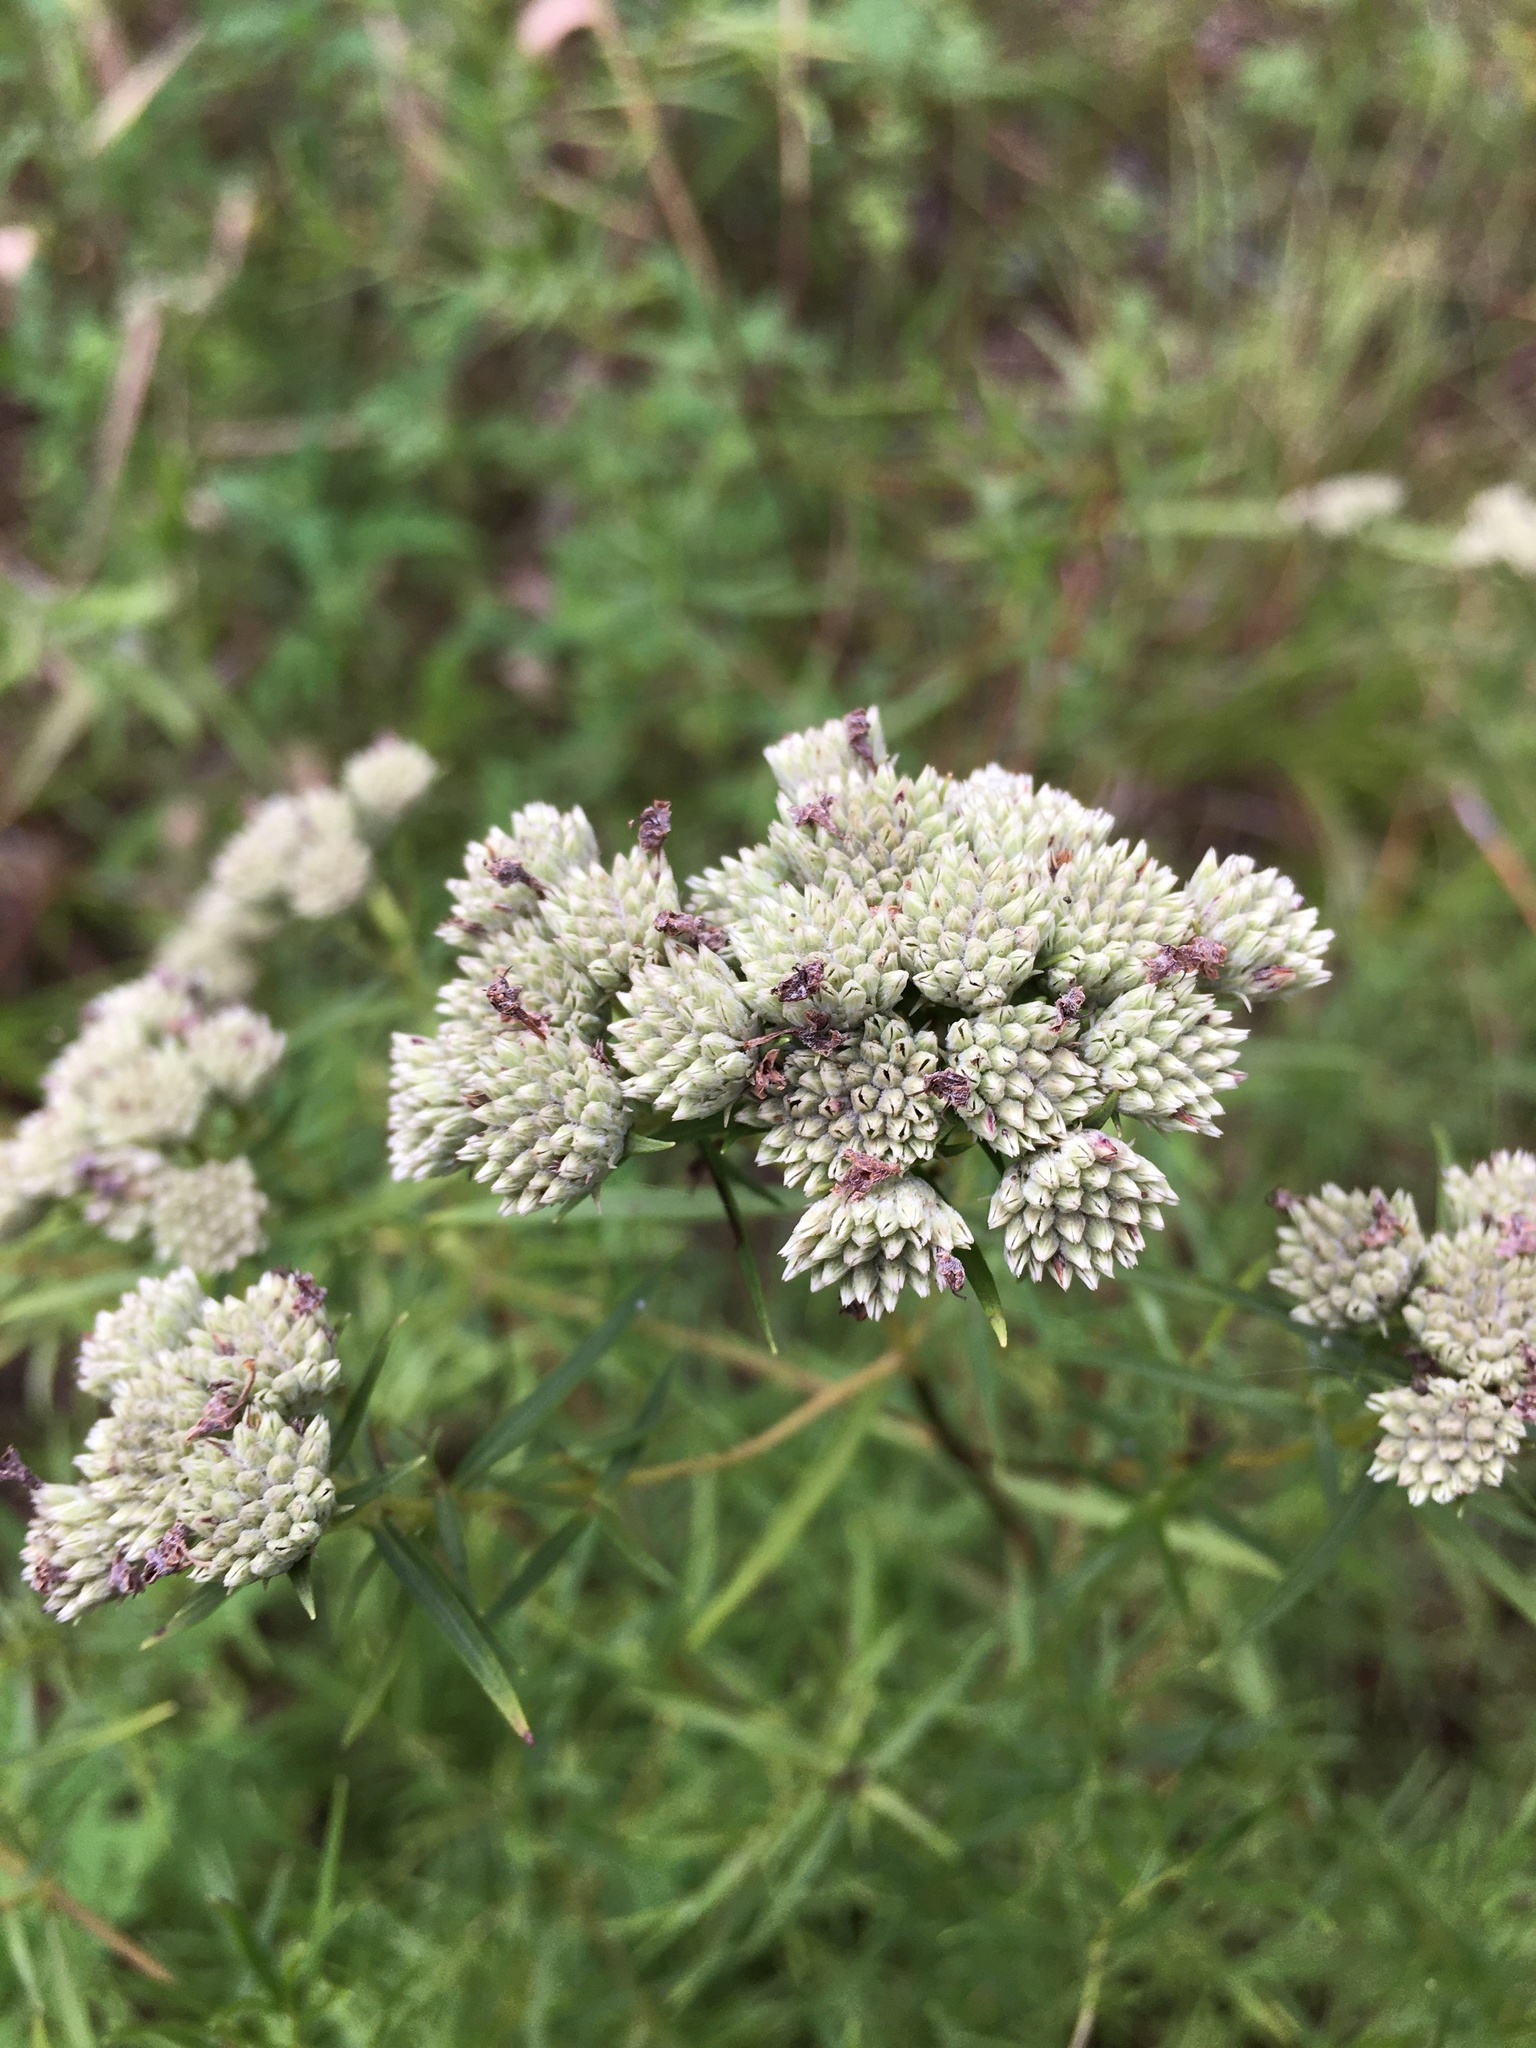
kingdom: Plantae
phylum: Tracheophyta
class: Magnoliopsida
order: Lamiales
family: Lamiaceae
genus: Pycnanthemum
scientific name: Pycnanthemum tenuifolium
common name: Narrow-leaf mountain-mint
